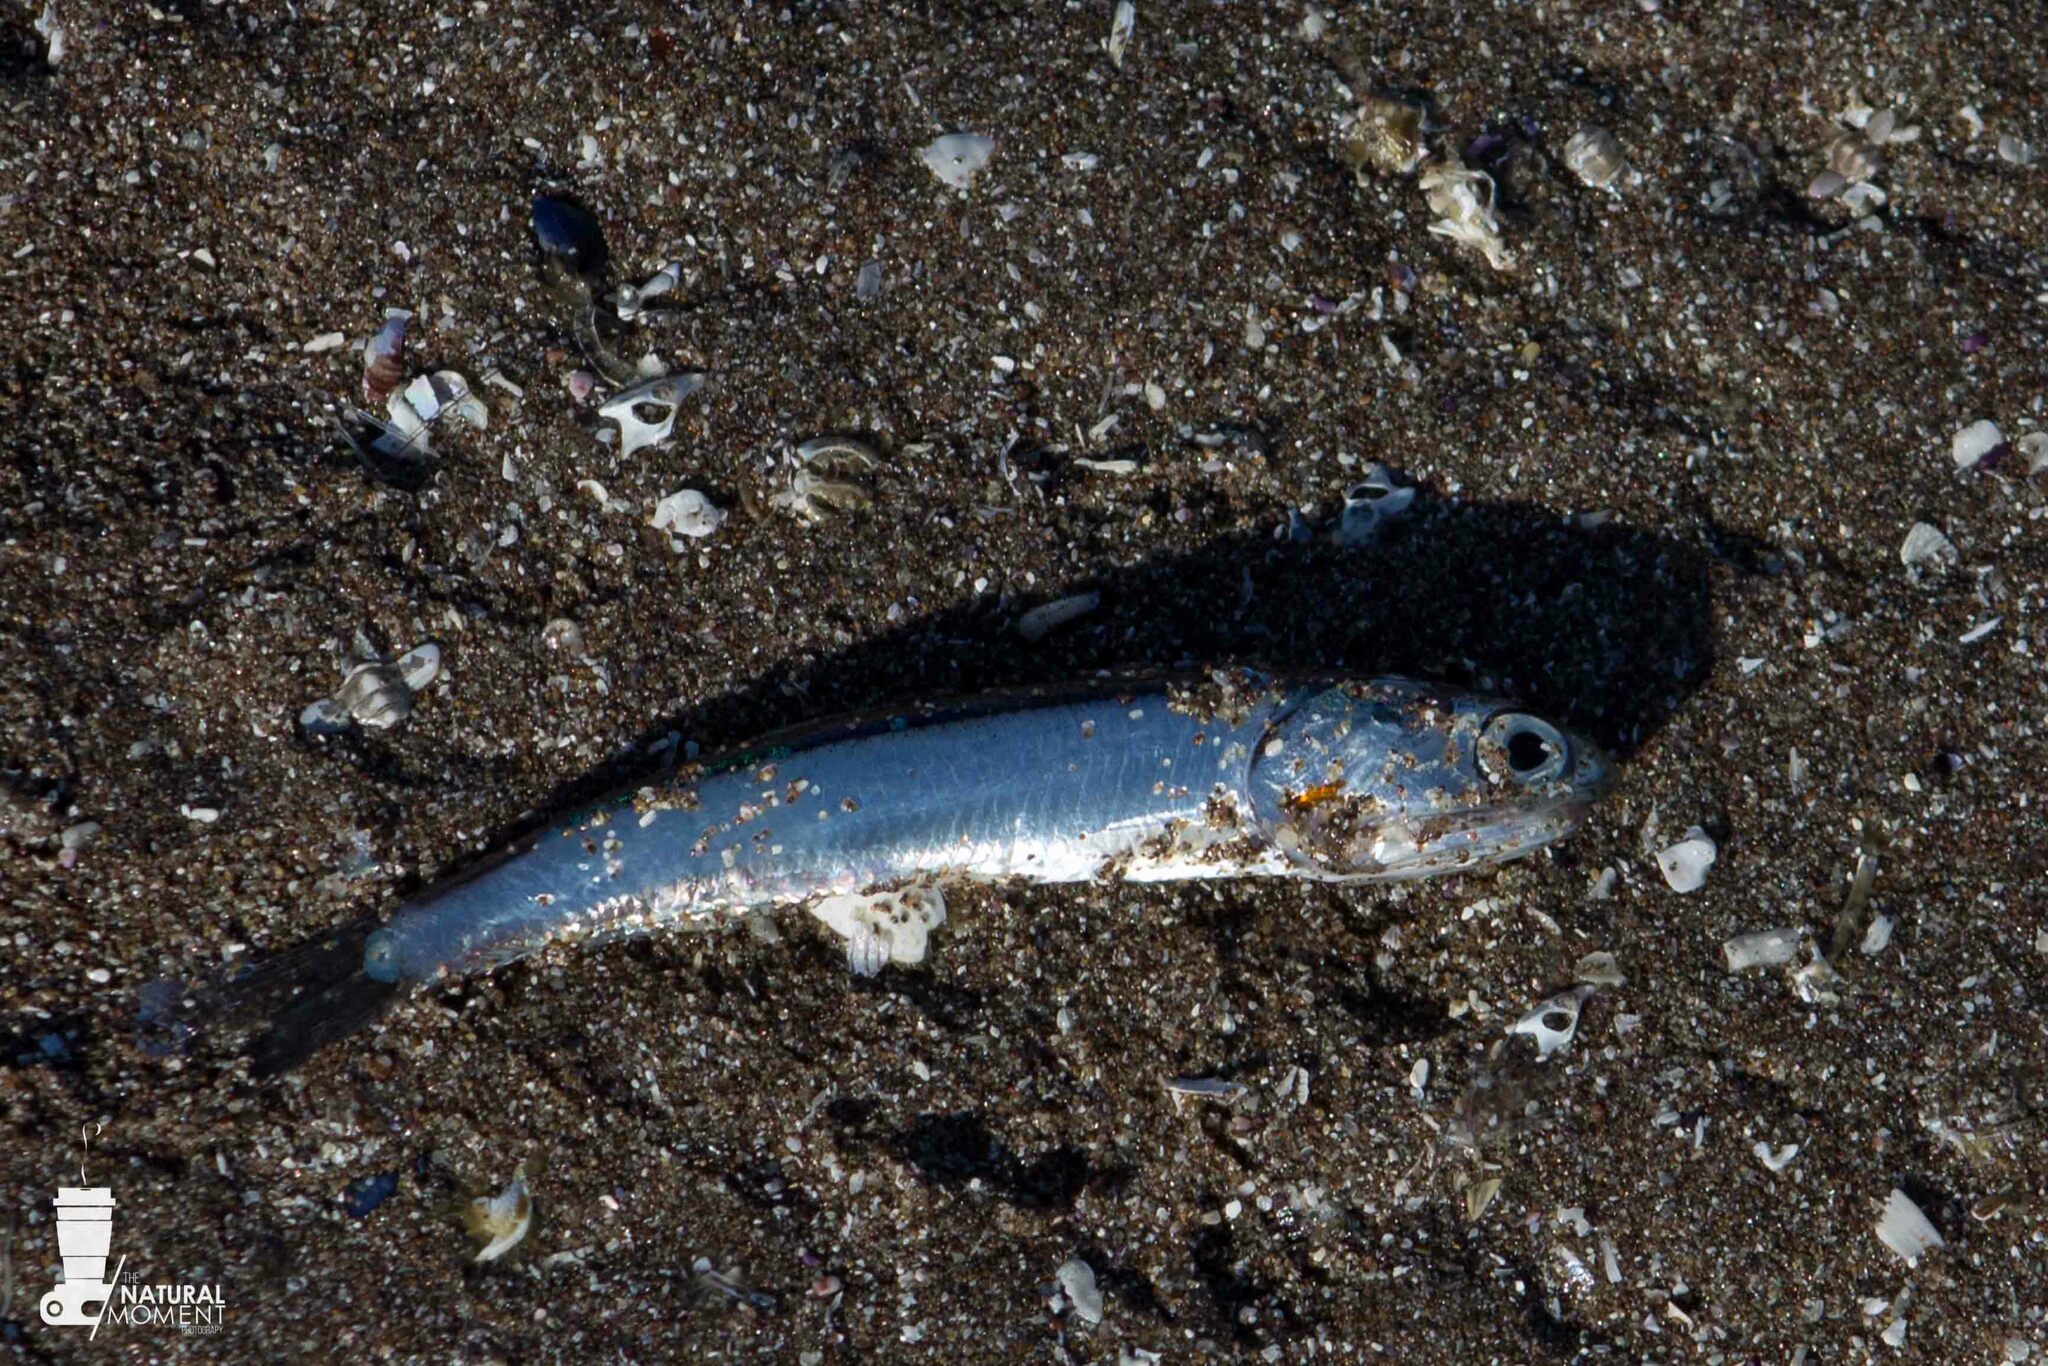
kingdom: Animalia
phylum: Chordata
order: Clupeiformes
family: Engraulidae
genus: Engraulis
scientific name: Engraulis ringens
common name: Peruvian anchovy
